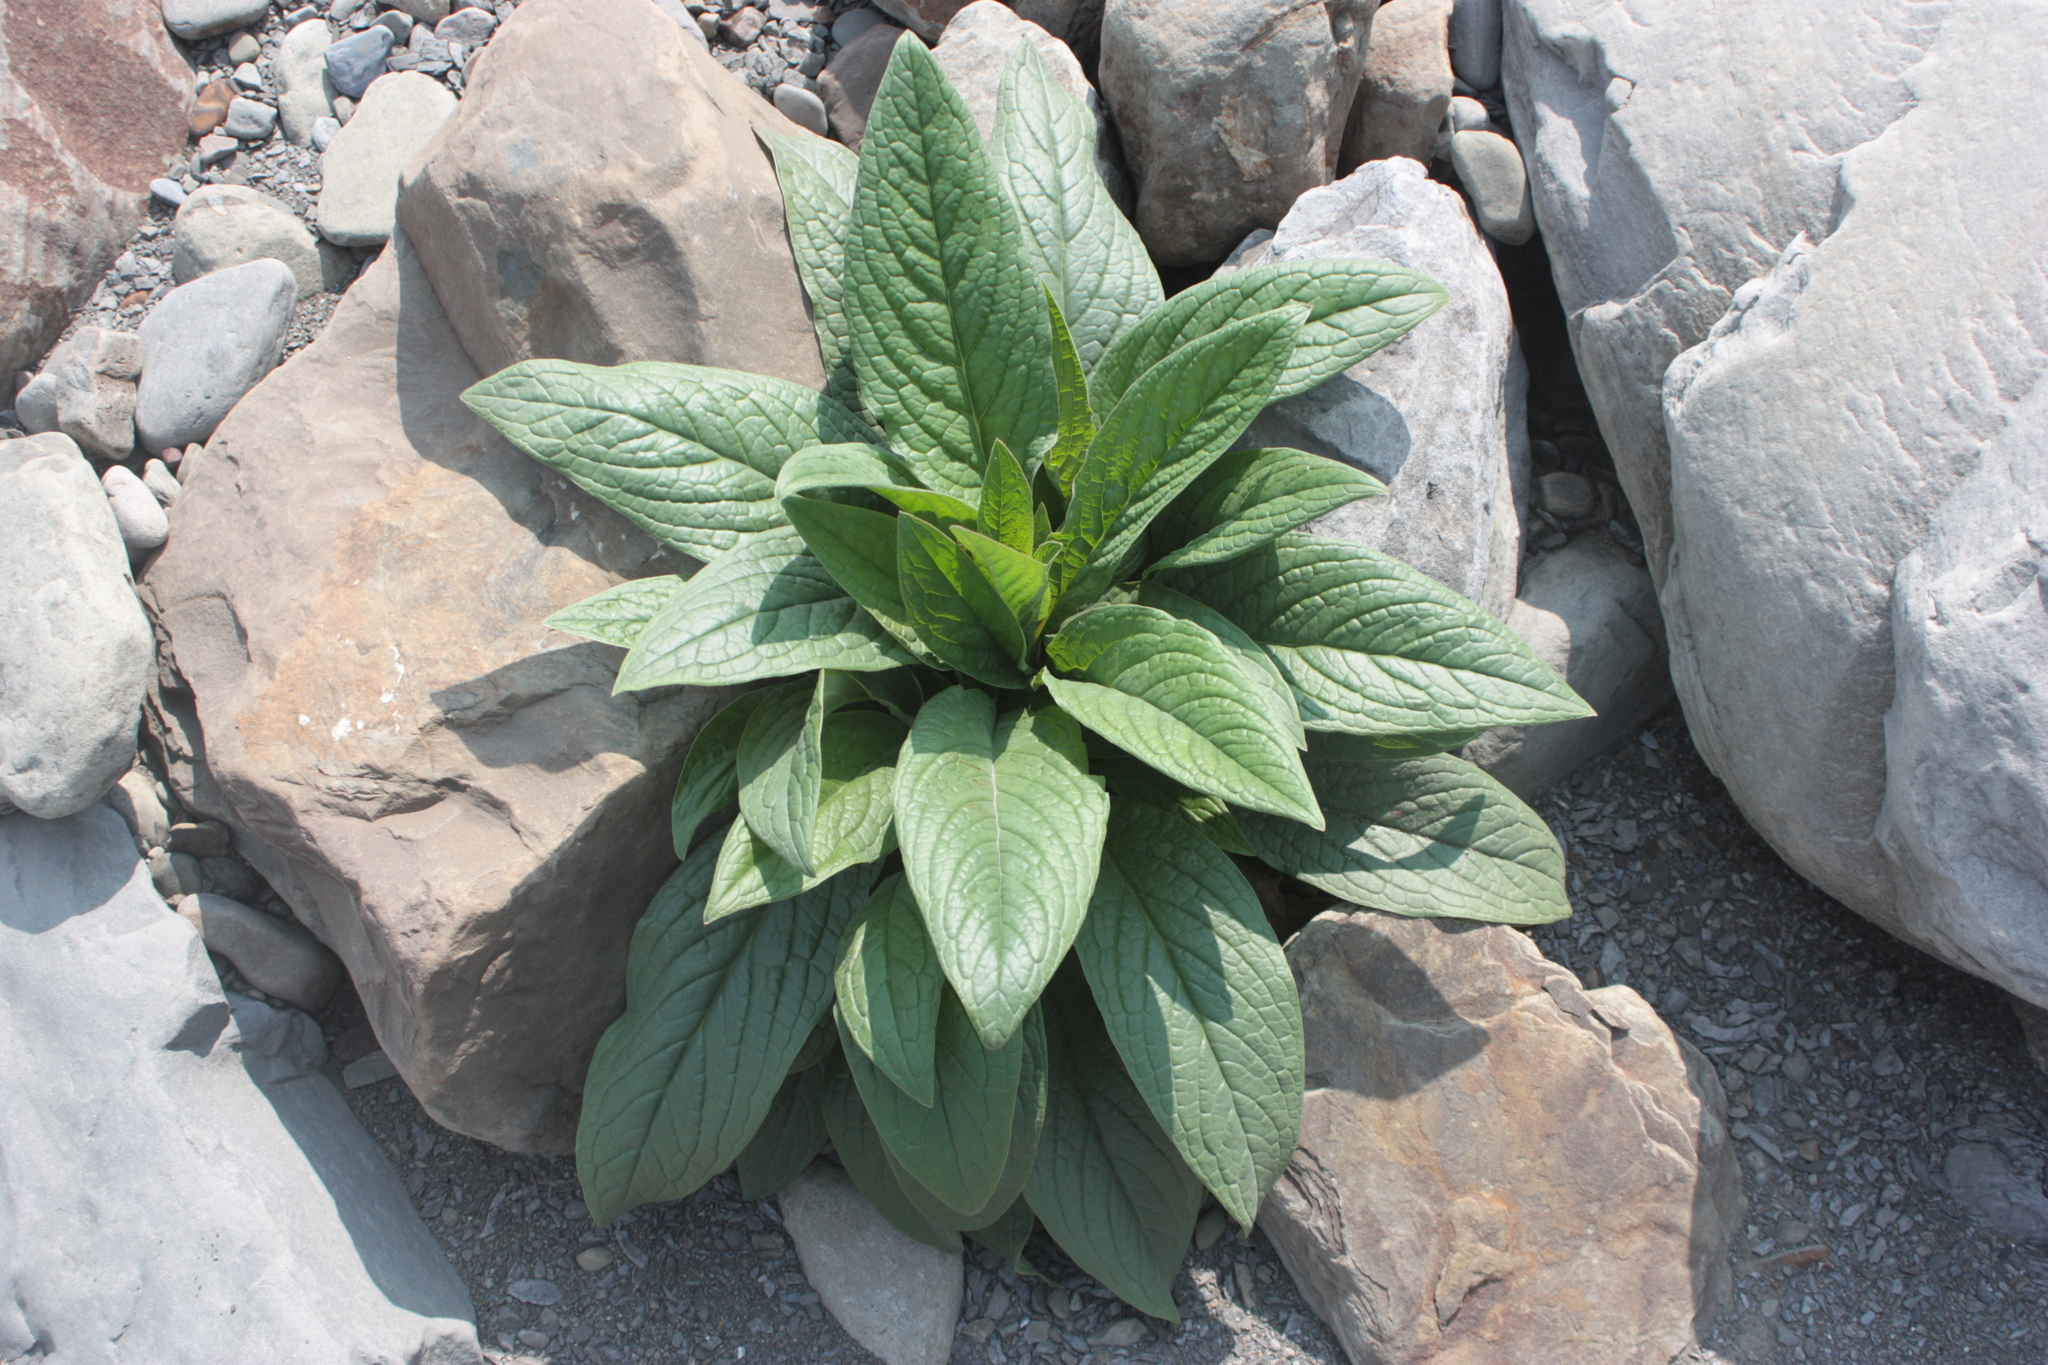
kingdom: Plantae
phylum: Tracheophyta
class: Magnoliopsida
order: Boraginales
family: Boraginaceae
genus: Cynoglossum
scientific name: Cynoglossum zeylanicum
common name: Ceylon hound's tongue
